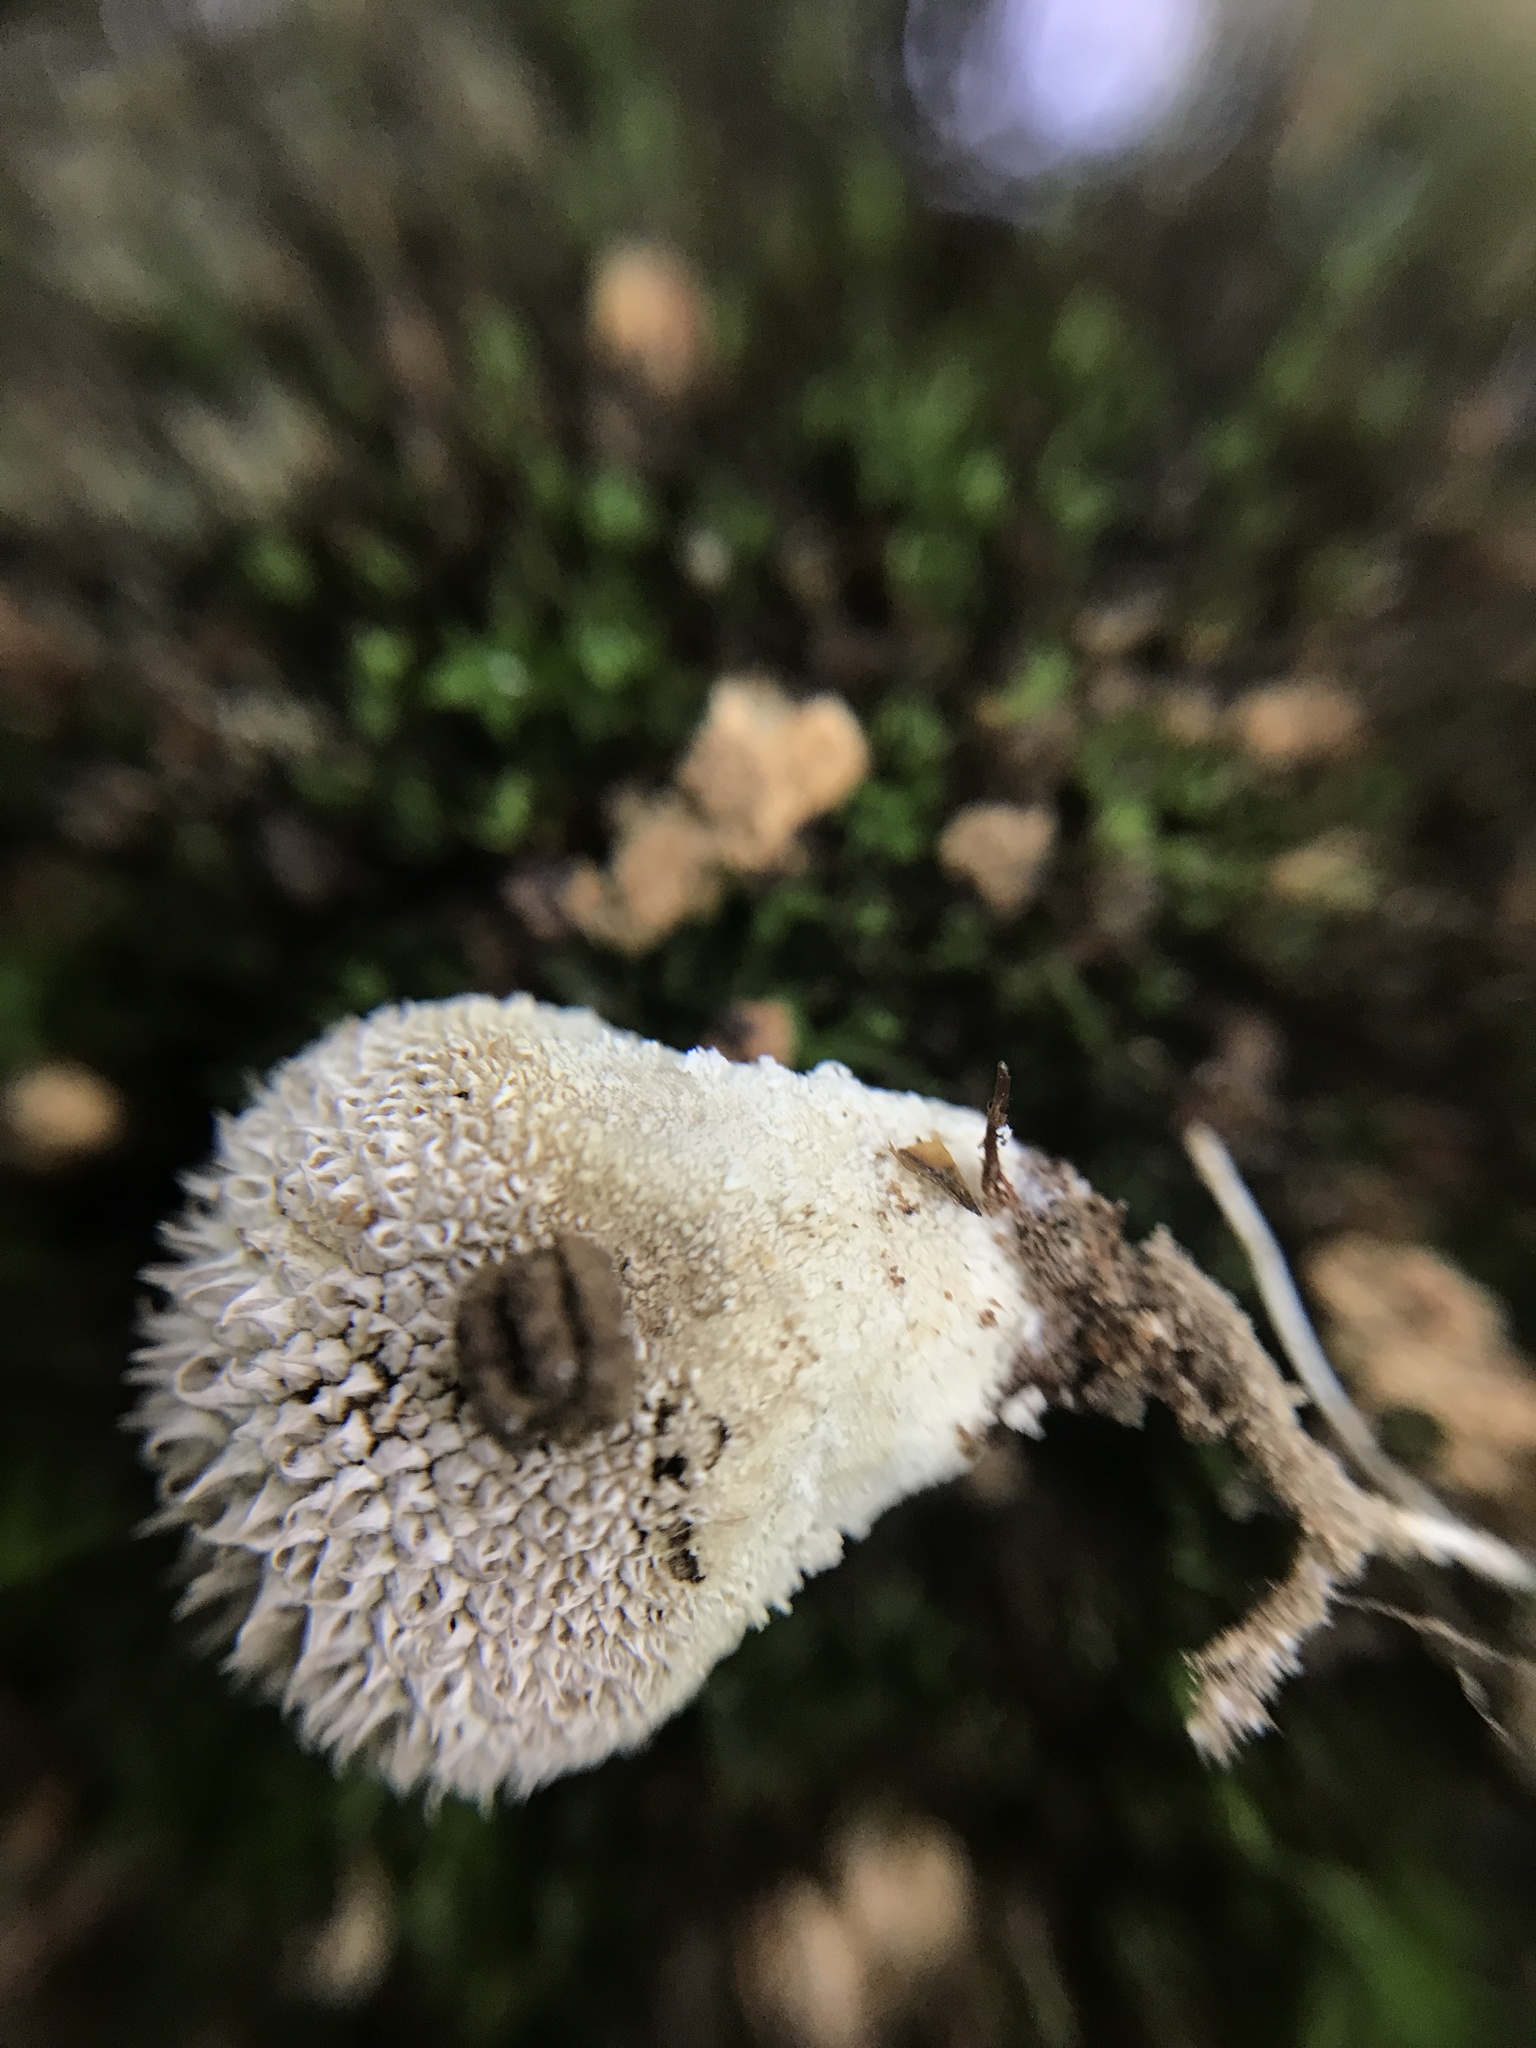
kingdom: Fungi
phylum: Basidiomycota
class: Agaricomycetes
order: Agaricales
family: Agaricaceae
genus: Lycoperdon
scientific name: Lycoperdon marginatum
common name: Peeling puffball
